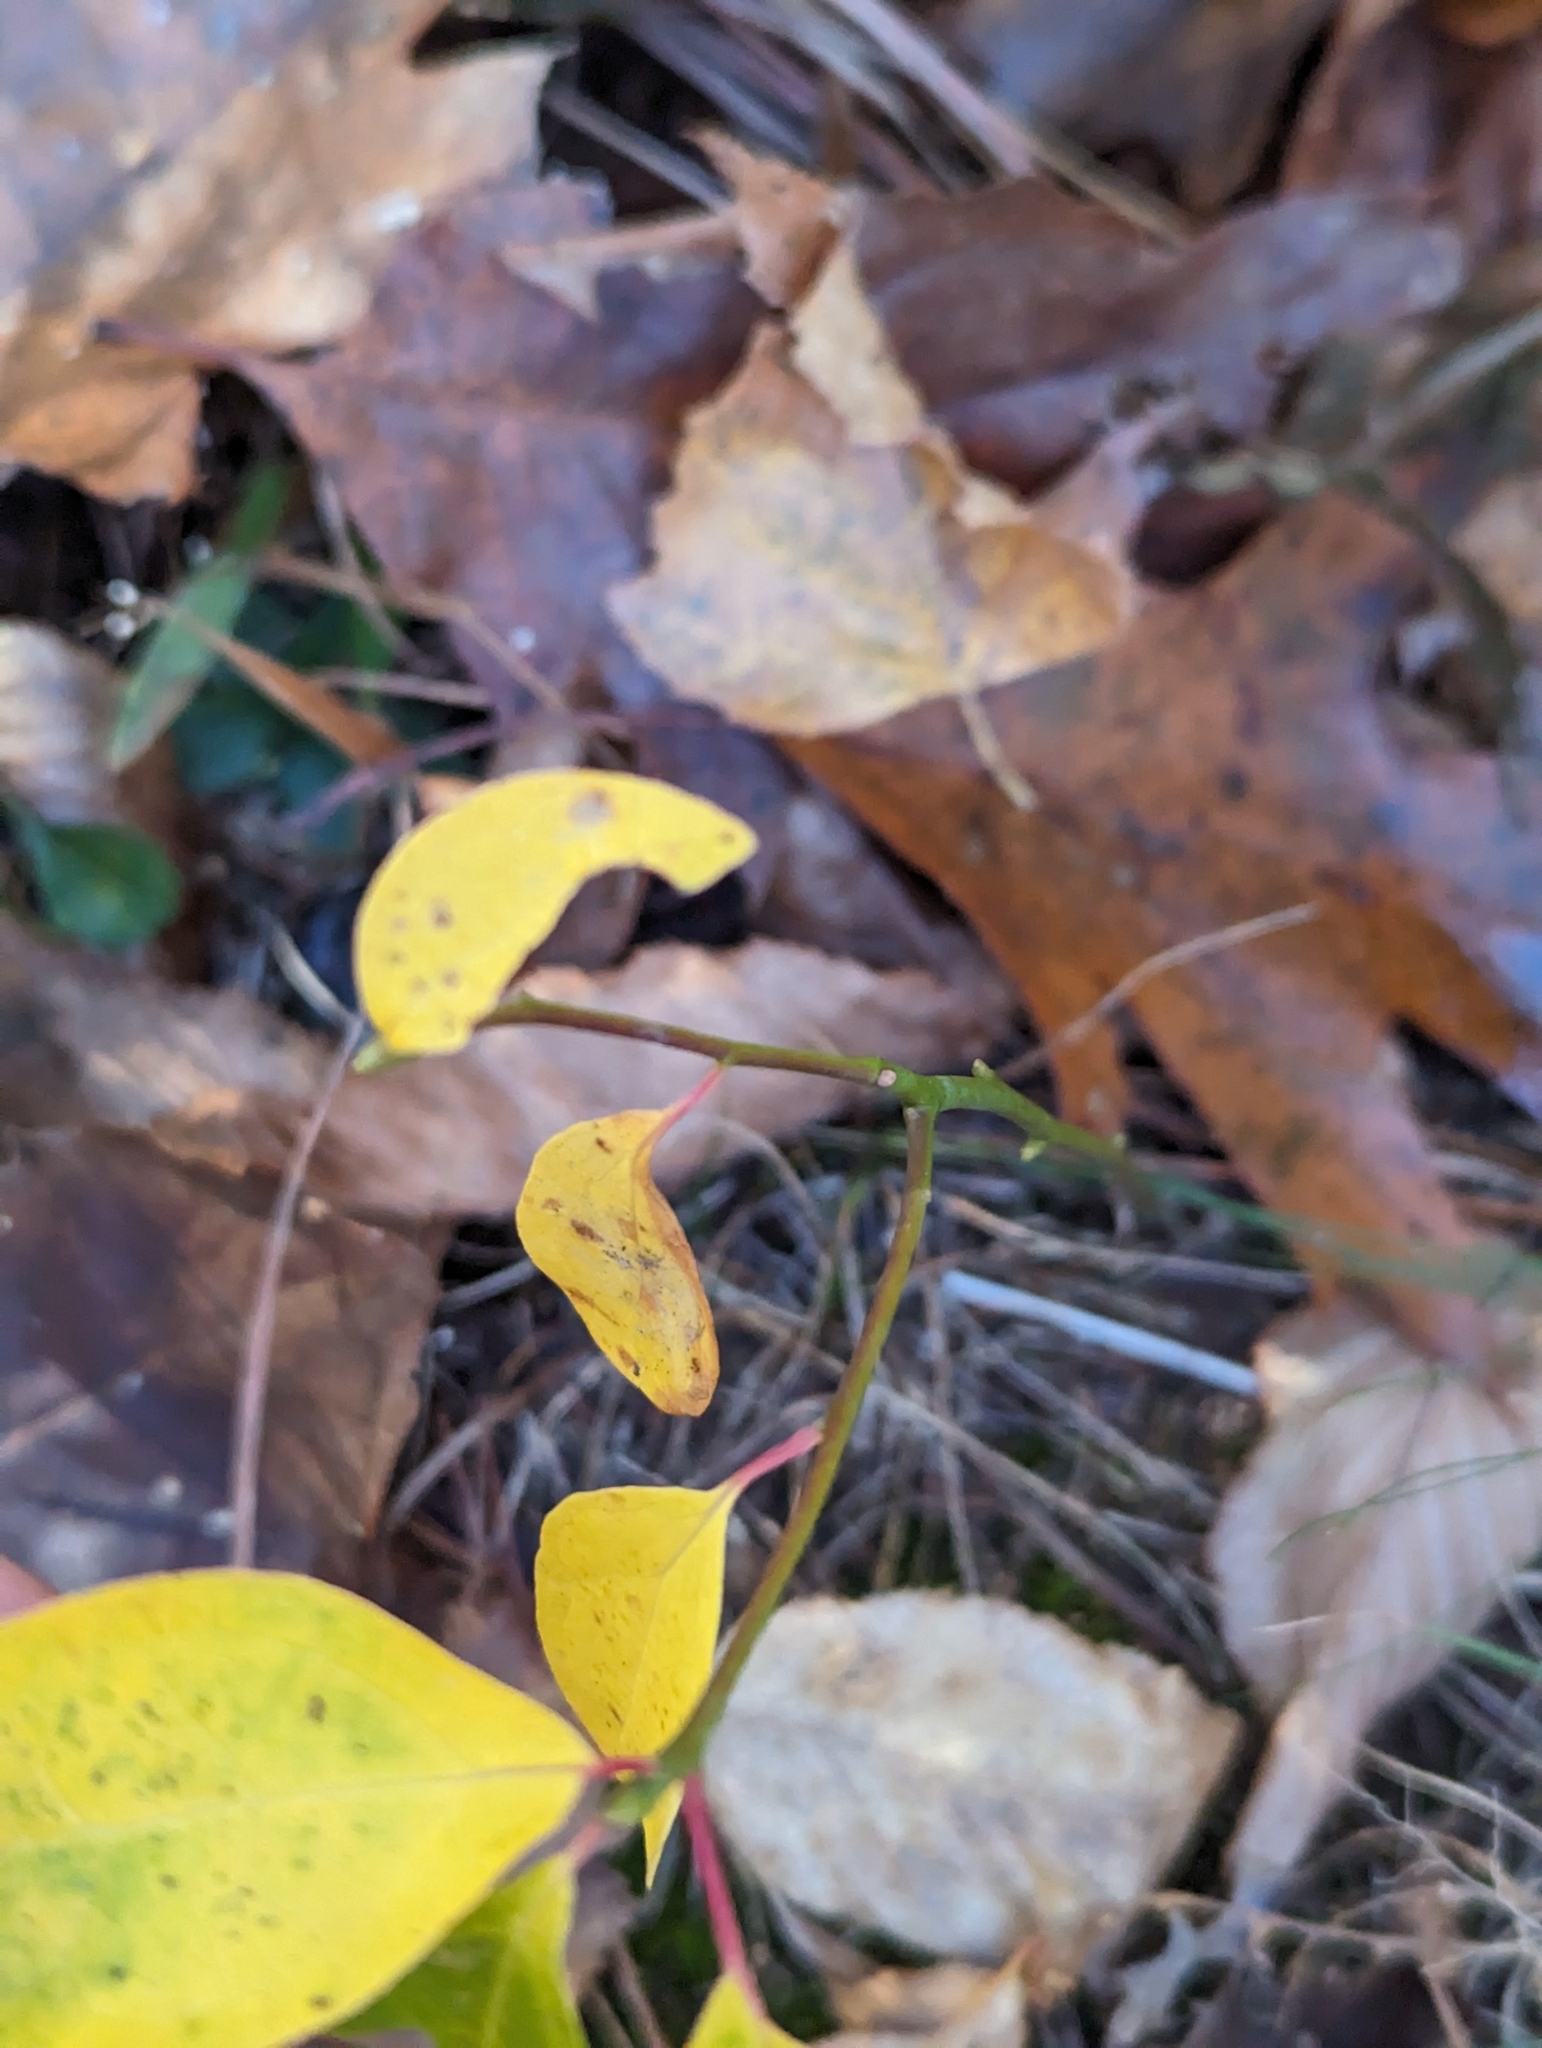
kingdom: Plantae
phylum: Tracheophyta
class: Magnoliopsida
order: Laurales
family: Lauraceae
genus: Sassafras
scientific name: Sassafras albidum
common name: Sassafras
